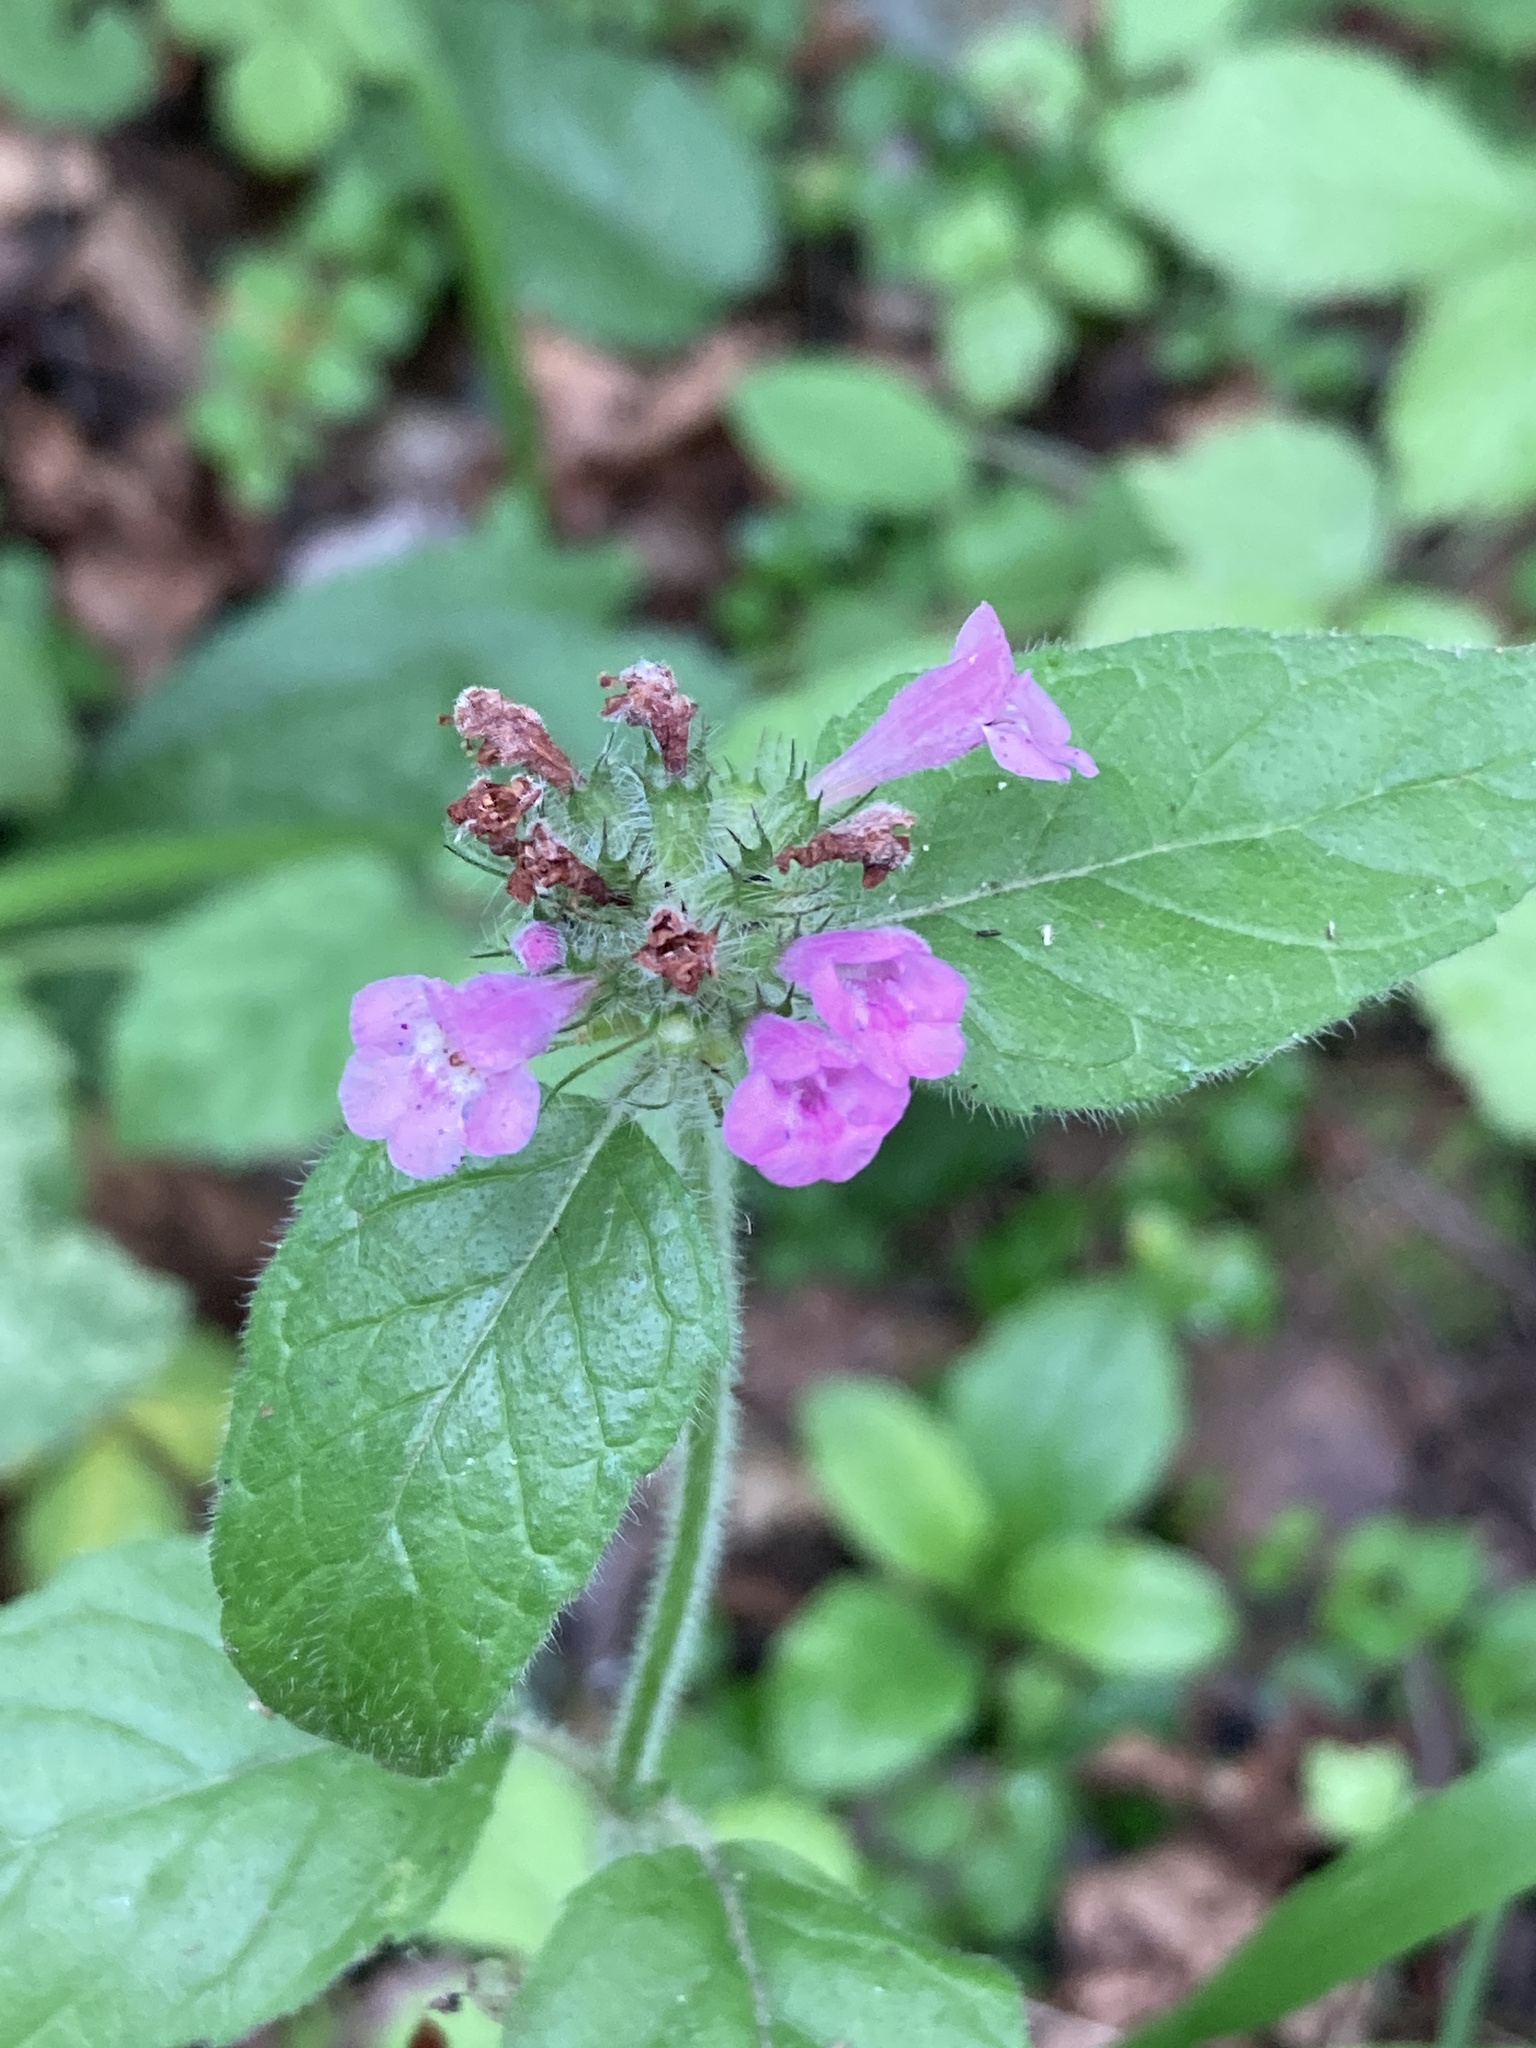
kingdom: Plantae
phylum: Tracheophyta
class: Magnoliopsida
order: Lamiales
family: Lamiaceae
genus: Clinopodium
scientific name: Clinopodium vulgare
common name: Wild basil
